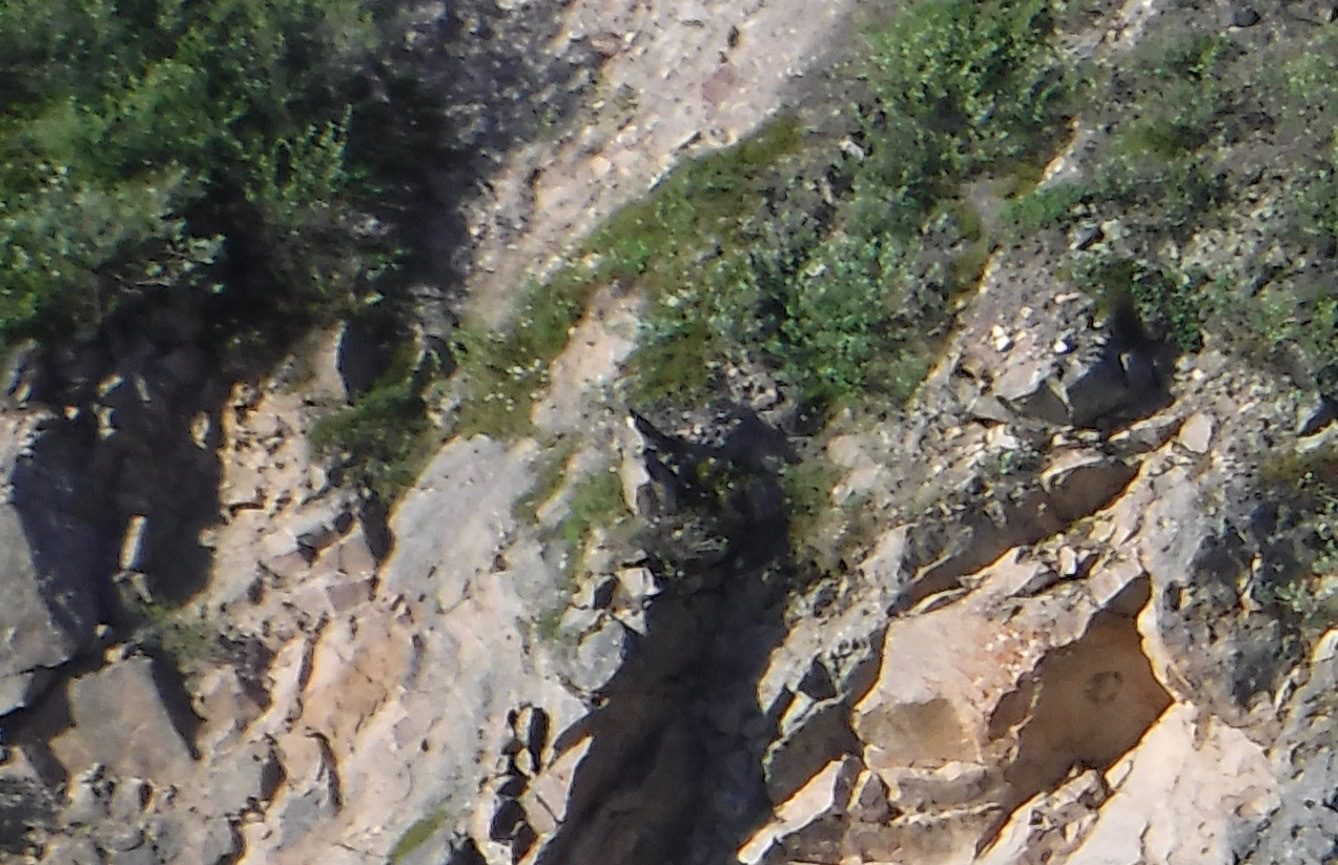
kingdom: Animalia
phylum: Chordata
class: Aves
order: Falconiformes
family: Falconidae
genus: Falco
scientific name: Falco peregrinus
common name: Peregrine falcon
